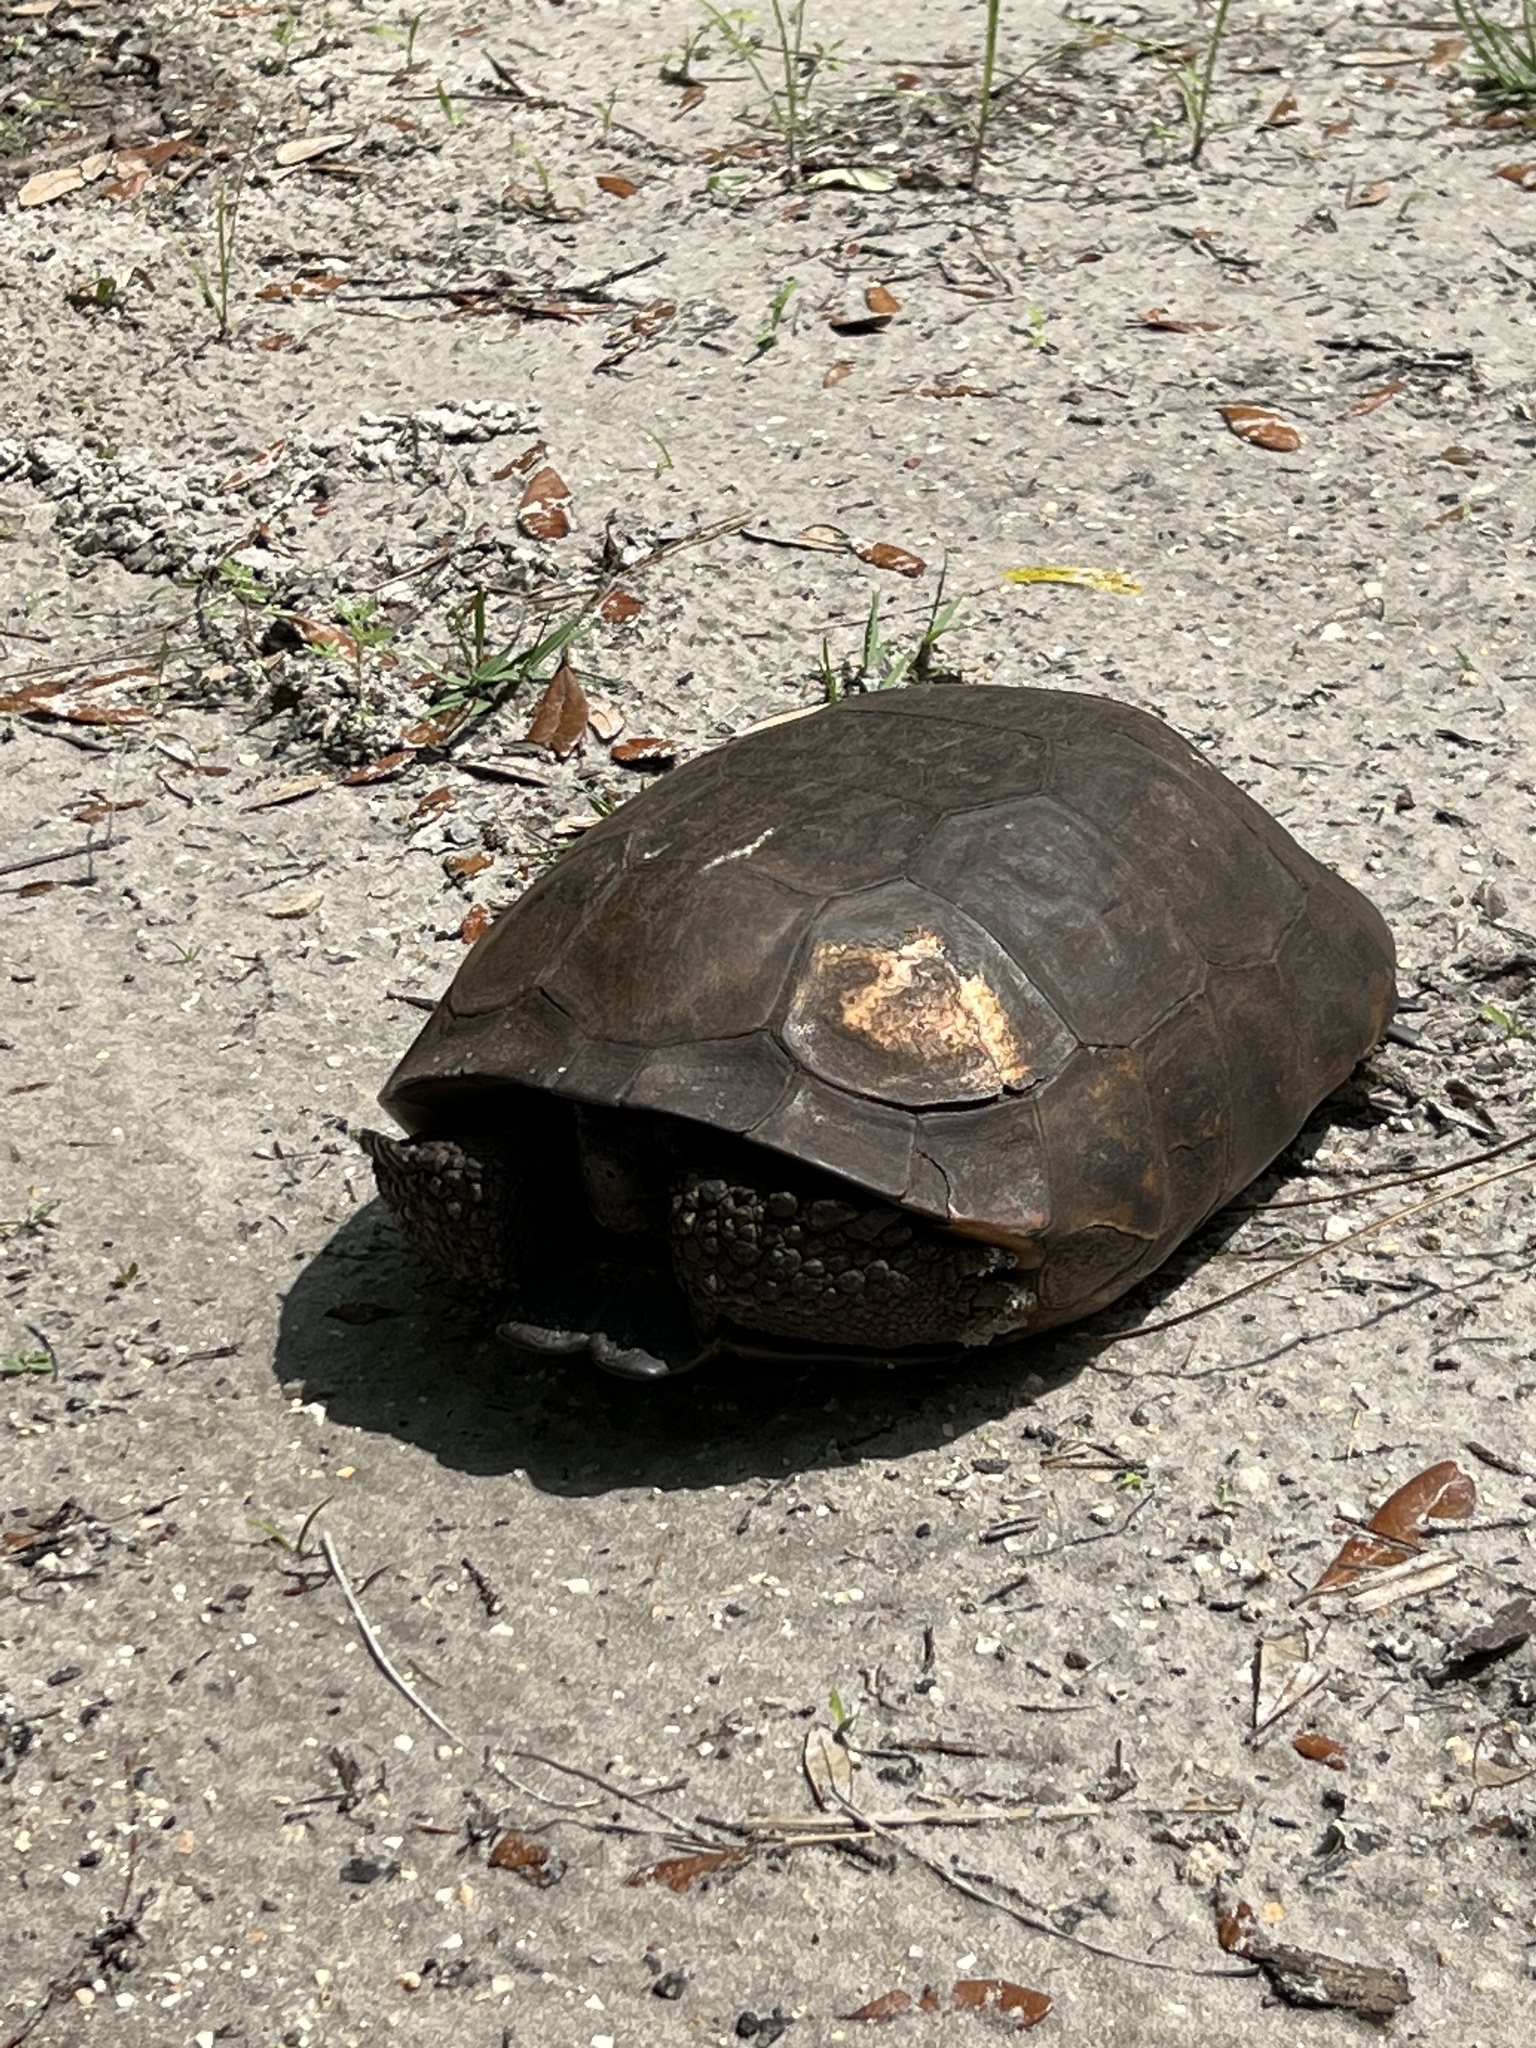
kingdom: Animalia
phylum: Chordata
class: Testudines
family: Testudinidae
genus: Gopherus
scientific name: Gopherus polyphemus
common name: Florida gopher tortoise
